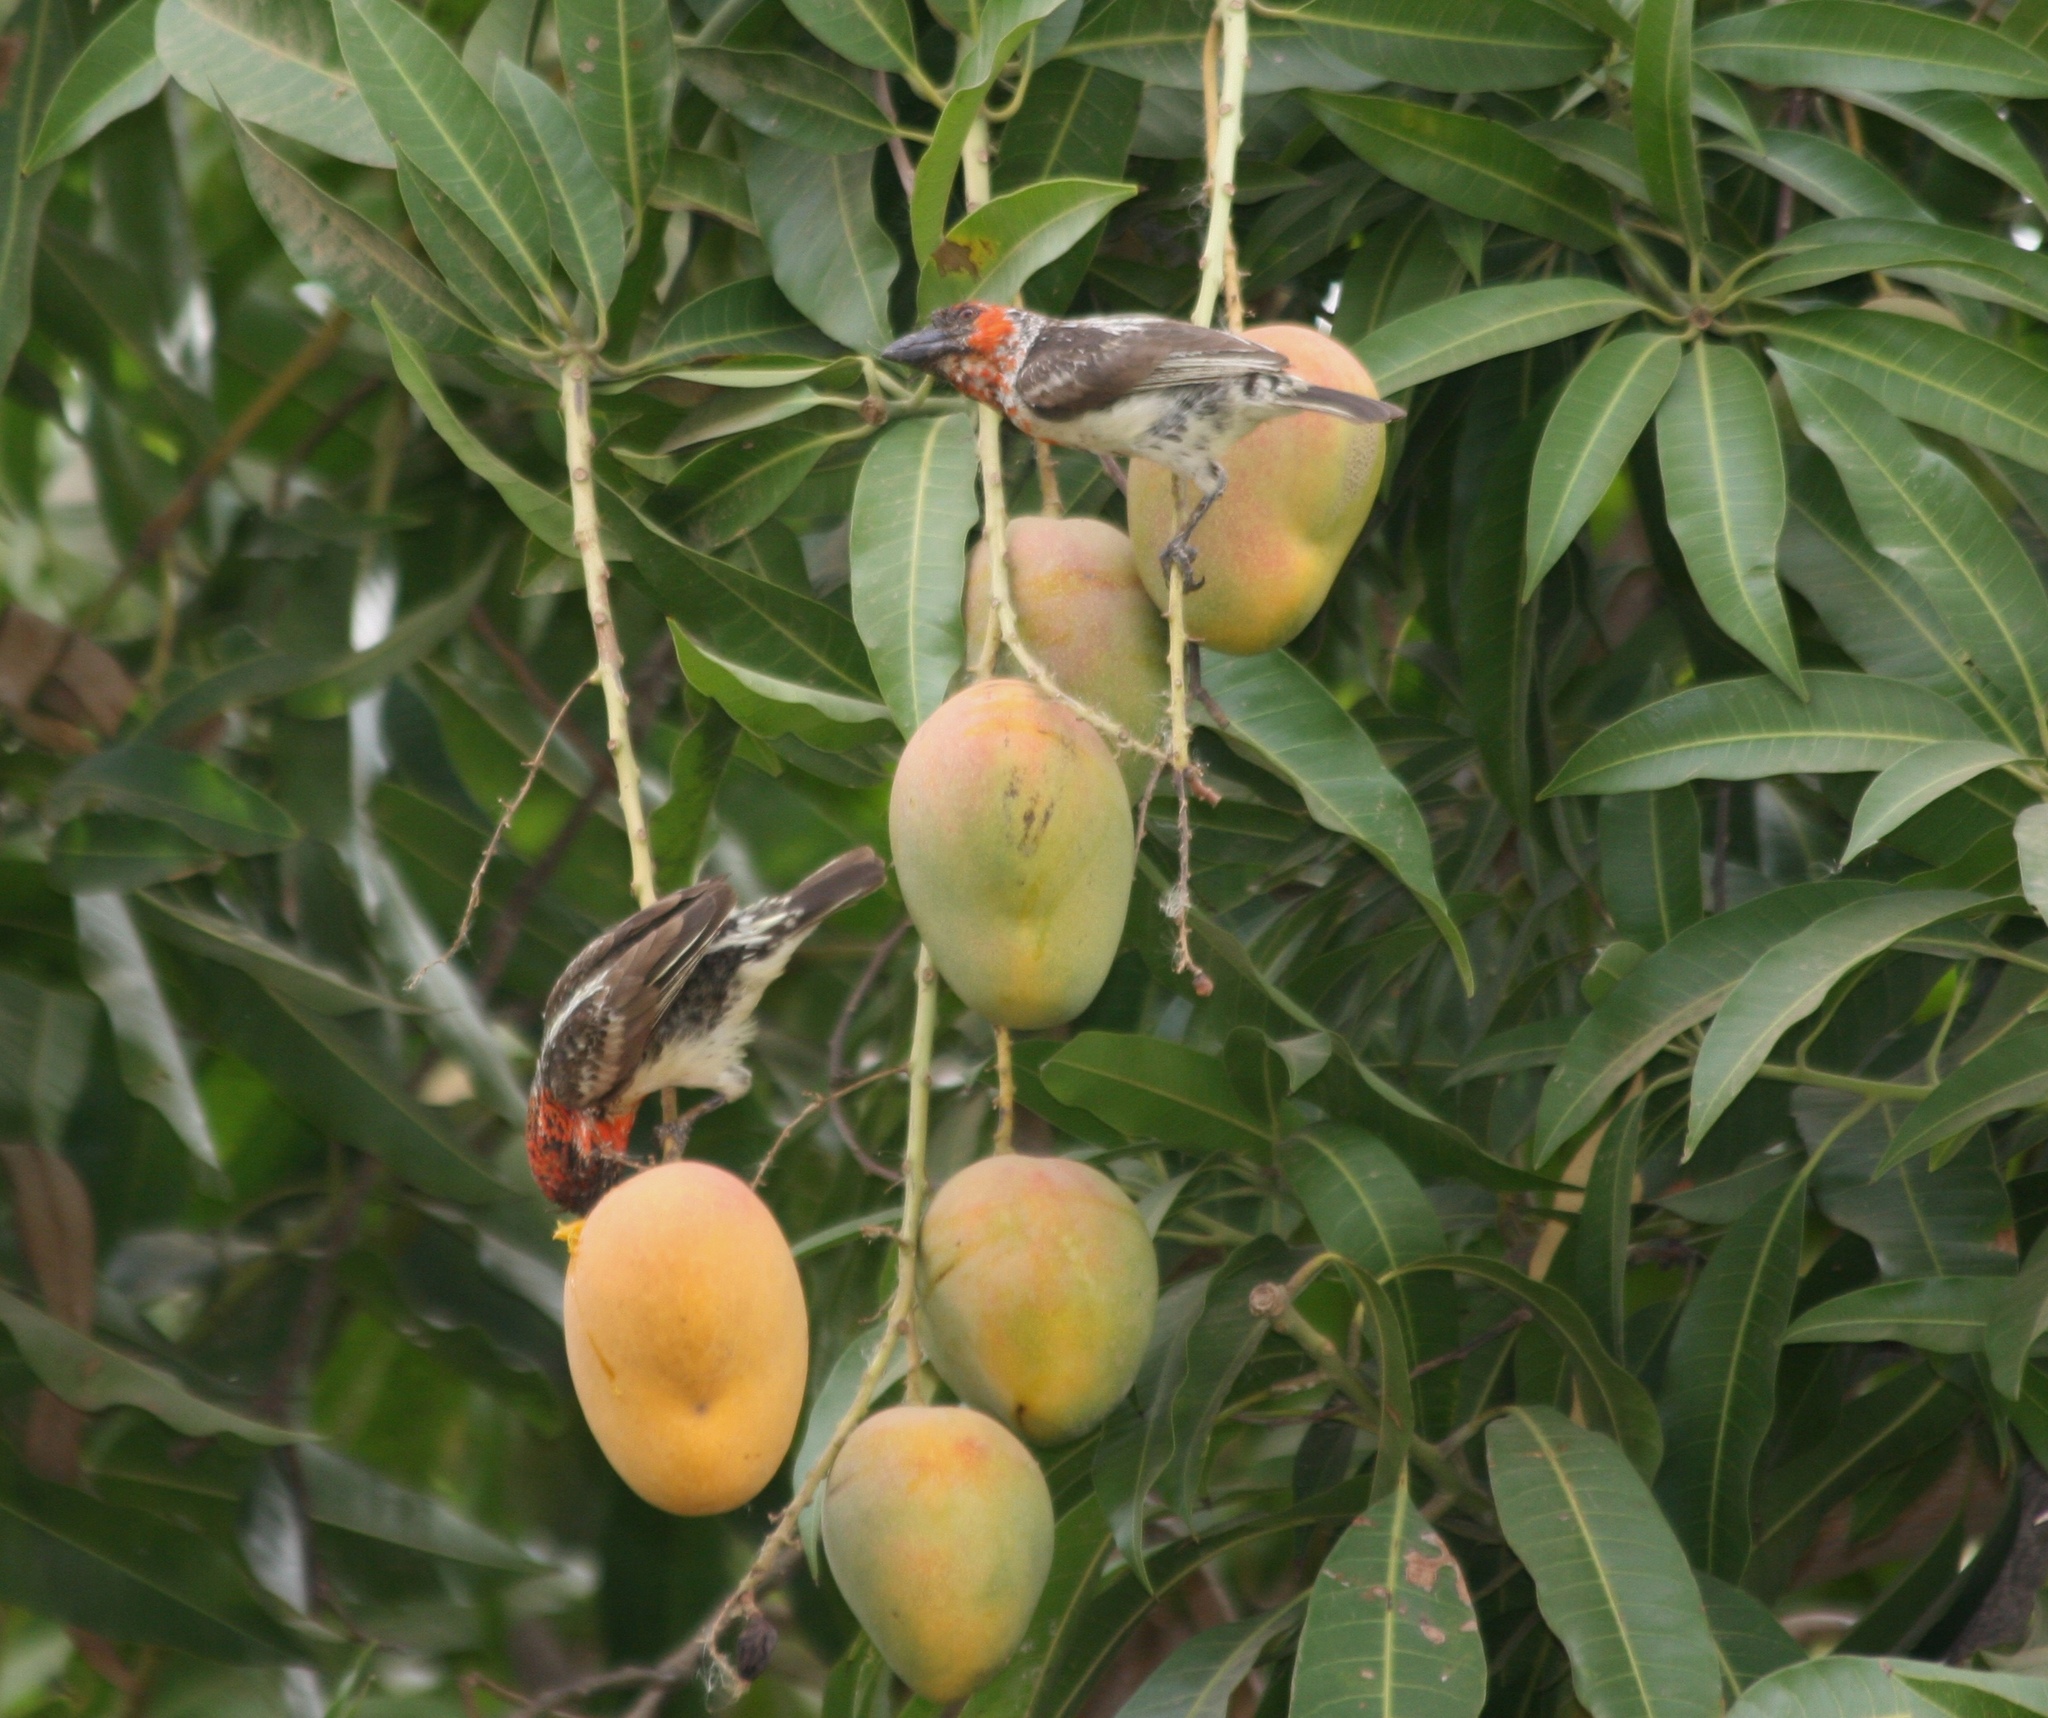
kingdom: Animalia
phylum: Chordata
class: Aves
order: Piciformes
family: Lybiidae
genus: Lybius
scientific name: Lybius vieilloti
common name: Vieillot's barbet
